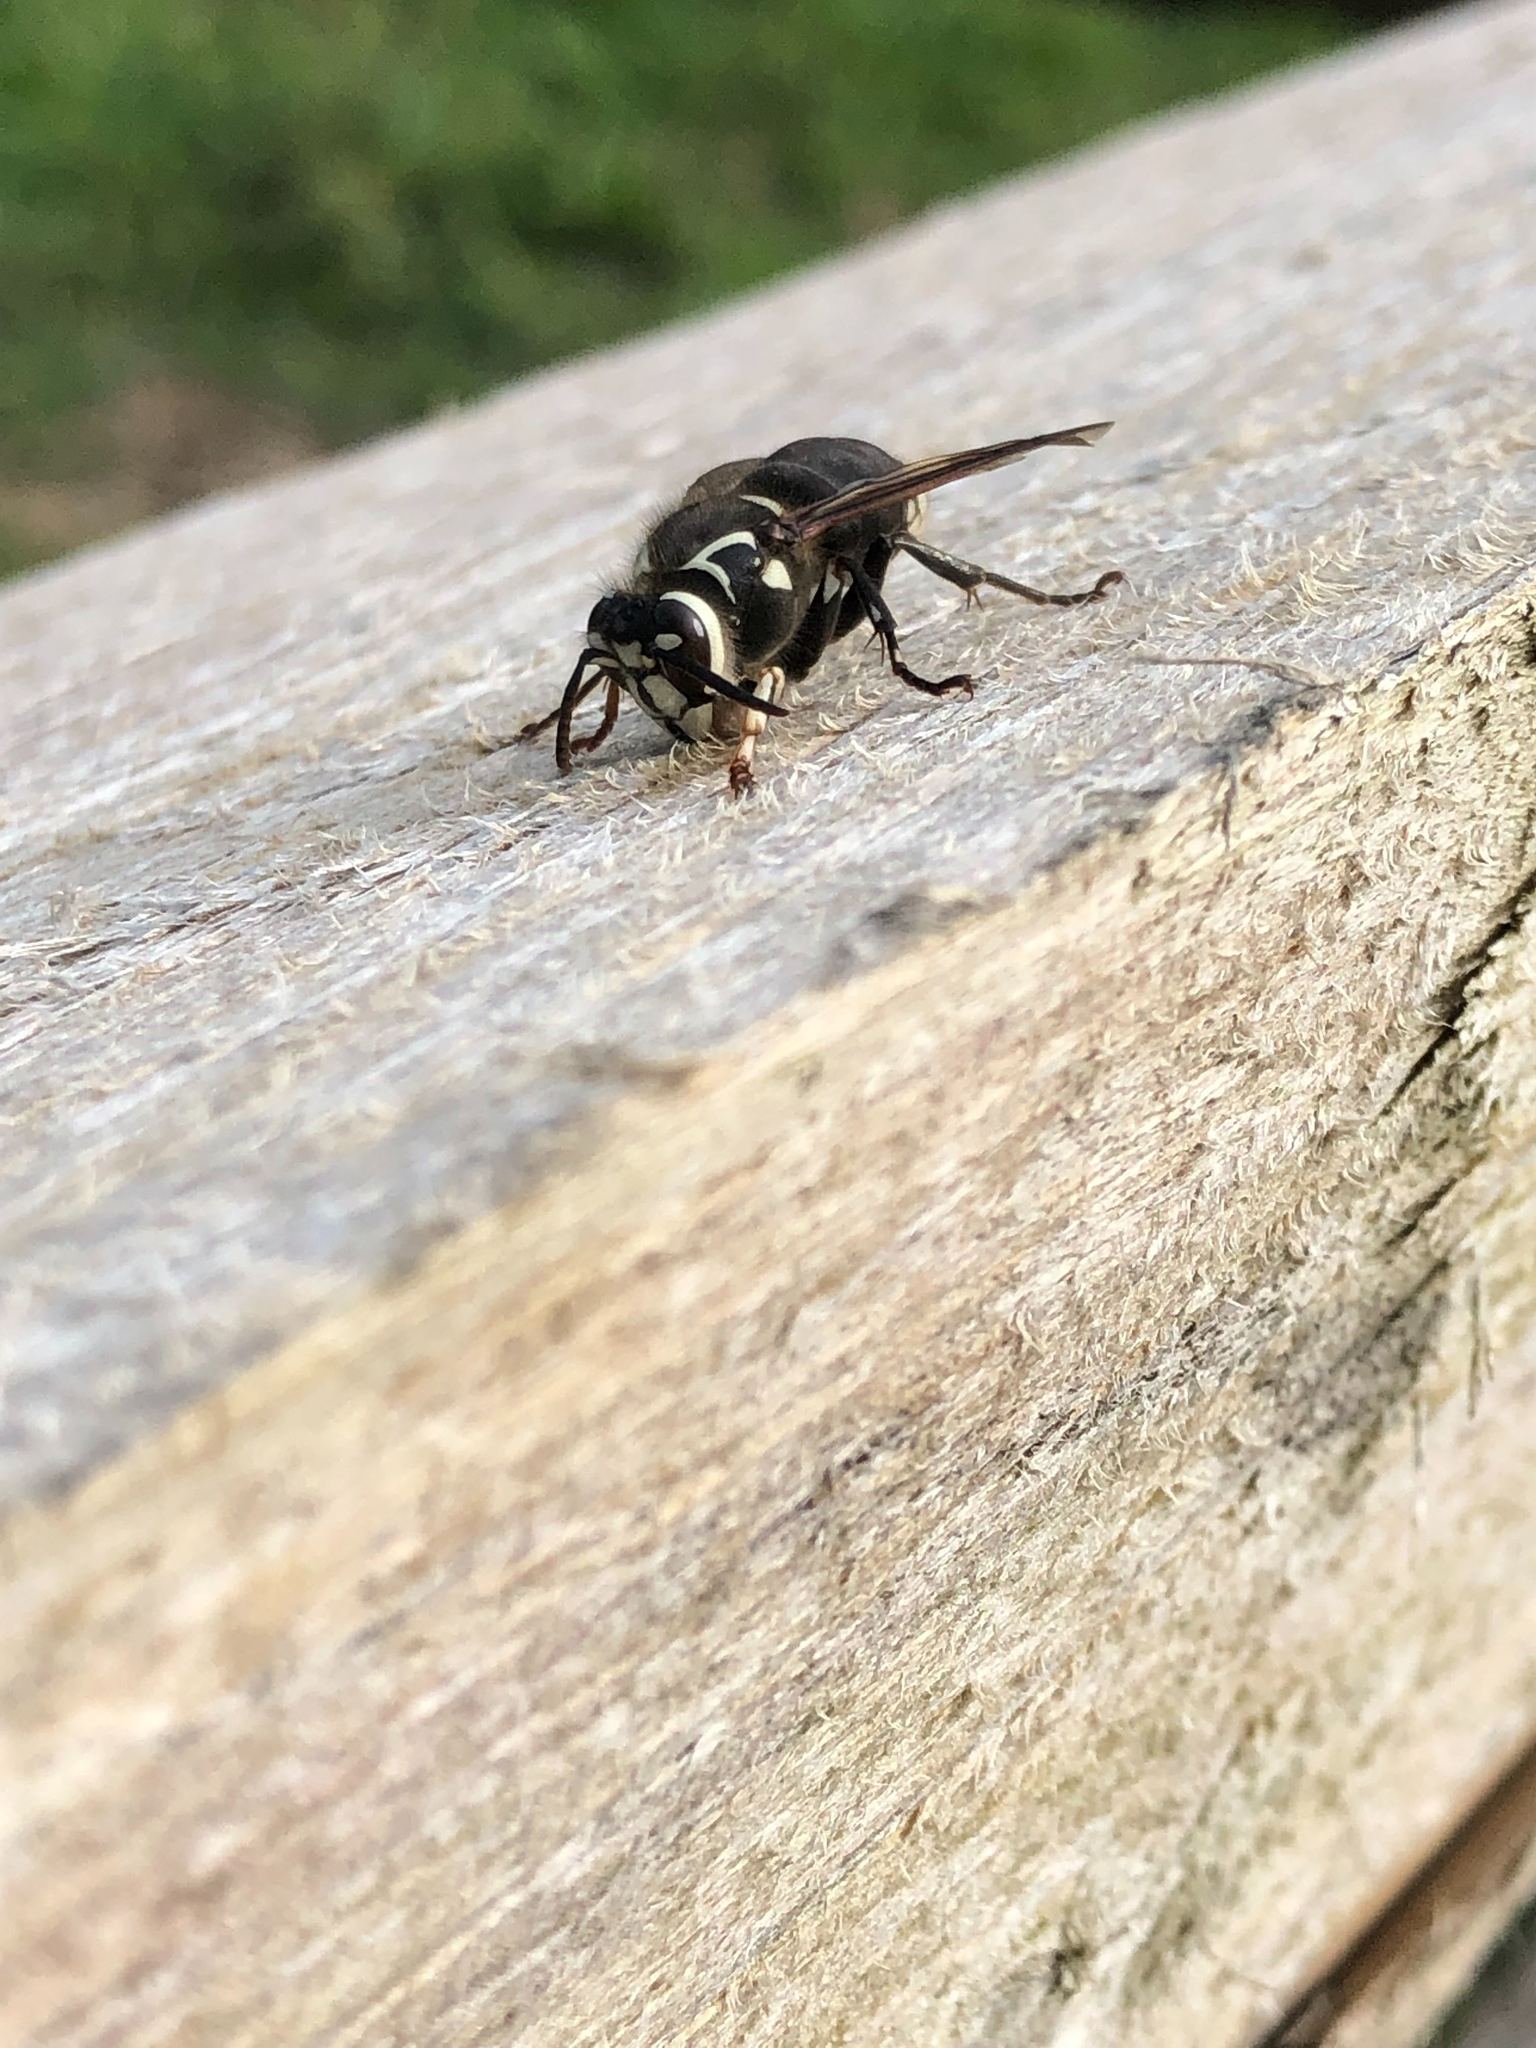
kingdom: Animalia
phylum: Arthropoda
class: Insecta
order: Hymenoptera
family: Vespidae
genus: Dolichovespula
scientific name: Dolichovespula maculata
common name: Bald-faced hornet
